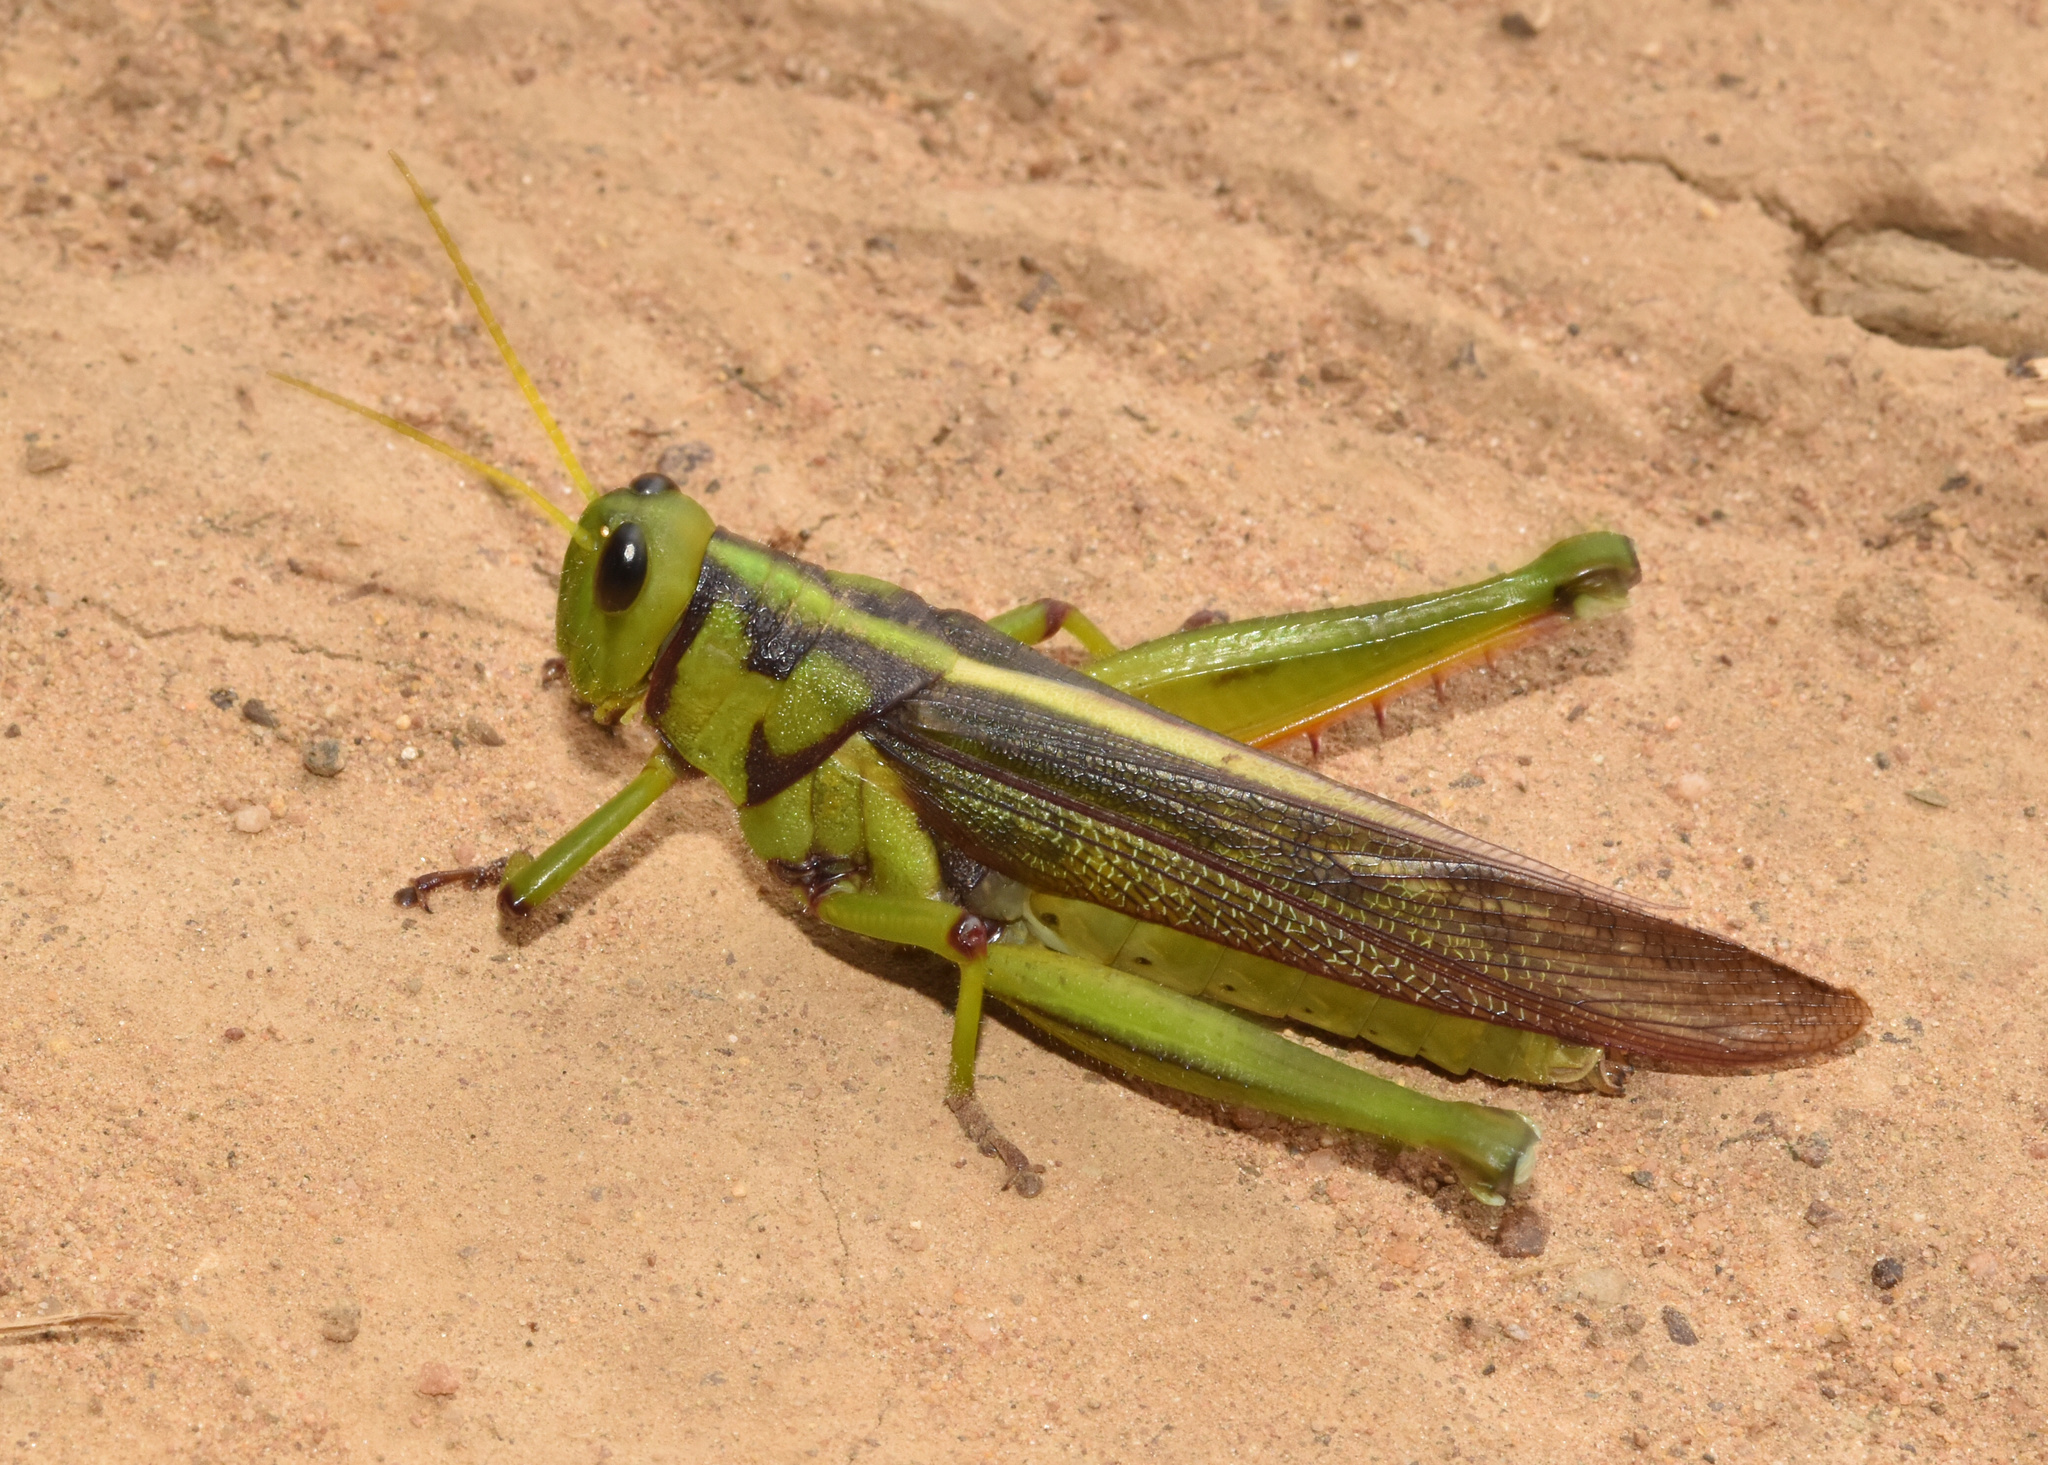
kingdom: Animalia
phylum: Arthropoda
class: Insecta
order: Orthoptera
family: Acrididae
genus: Kraussaria
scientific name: Kraussaria prasina
